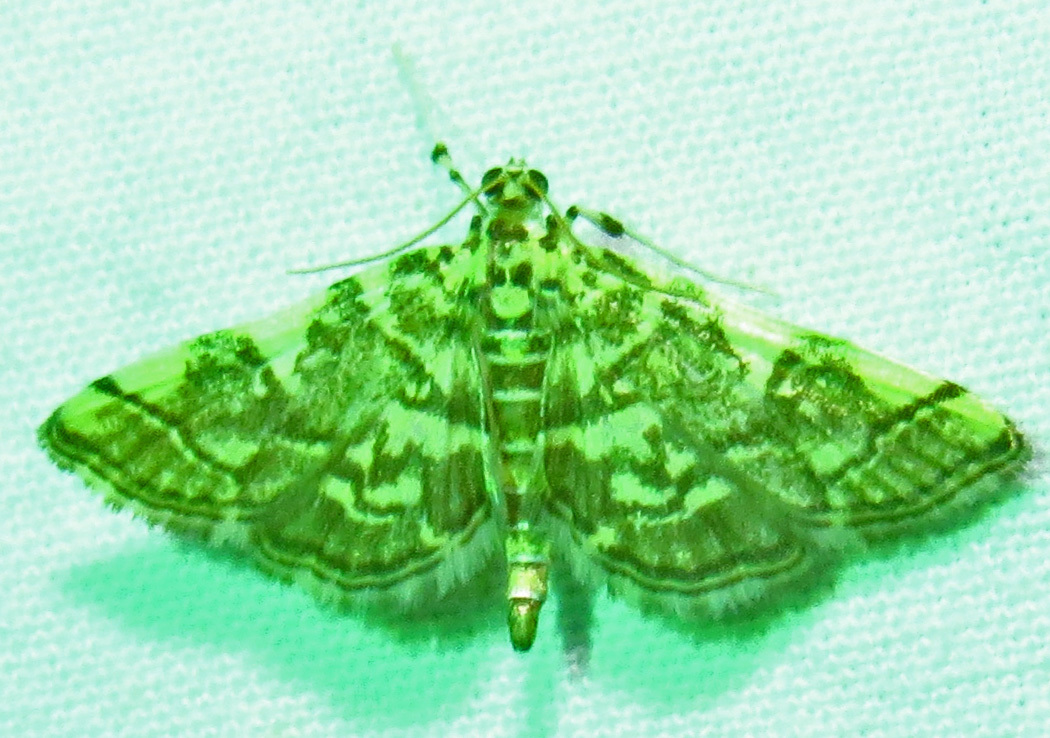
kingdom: Animalia
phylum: Arthropoda
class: Insecta
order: Lepidoptera
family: Crambidae
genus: Apogeshna
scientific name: Apogeshna stenialis
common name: Checkered apogeshna moth
